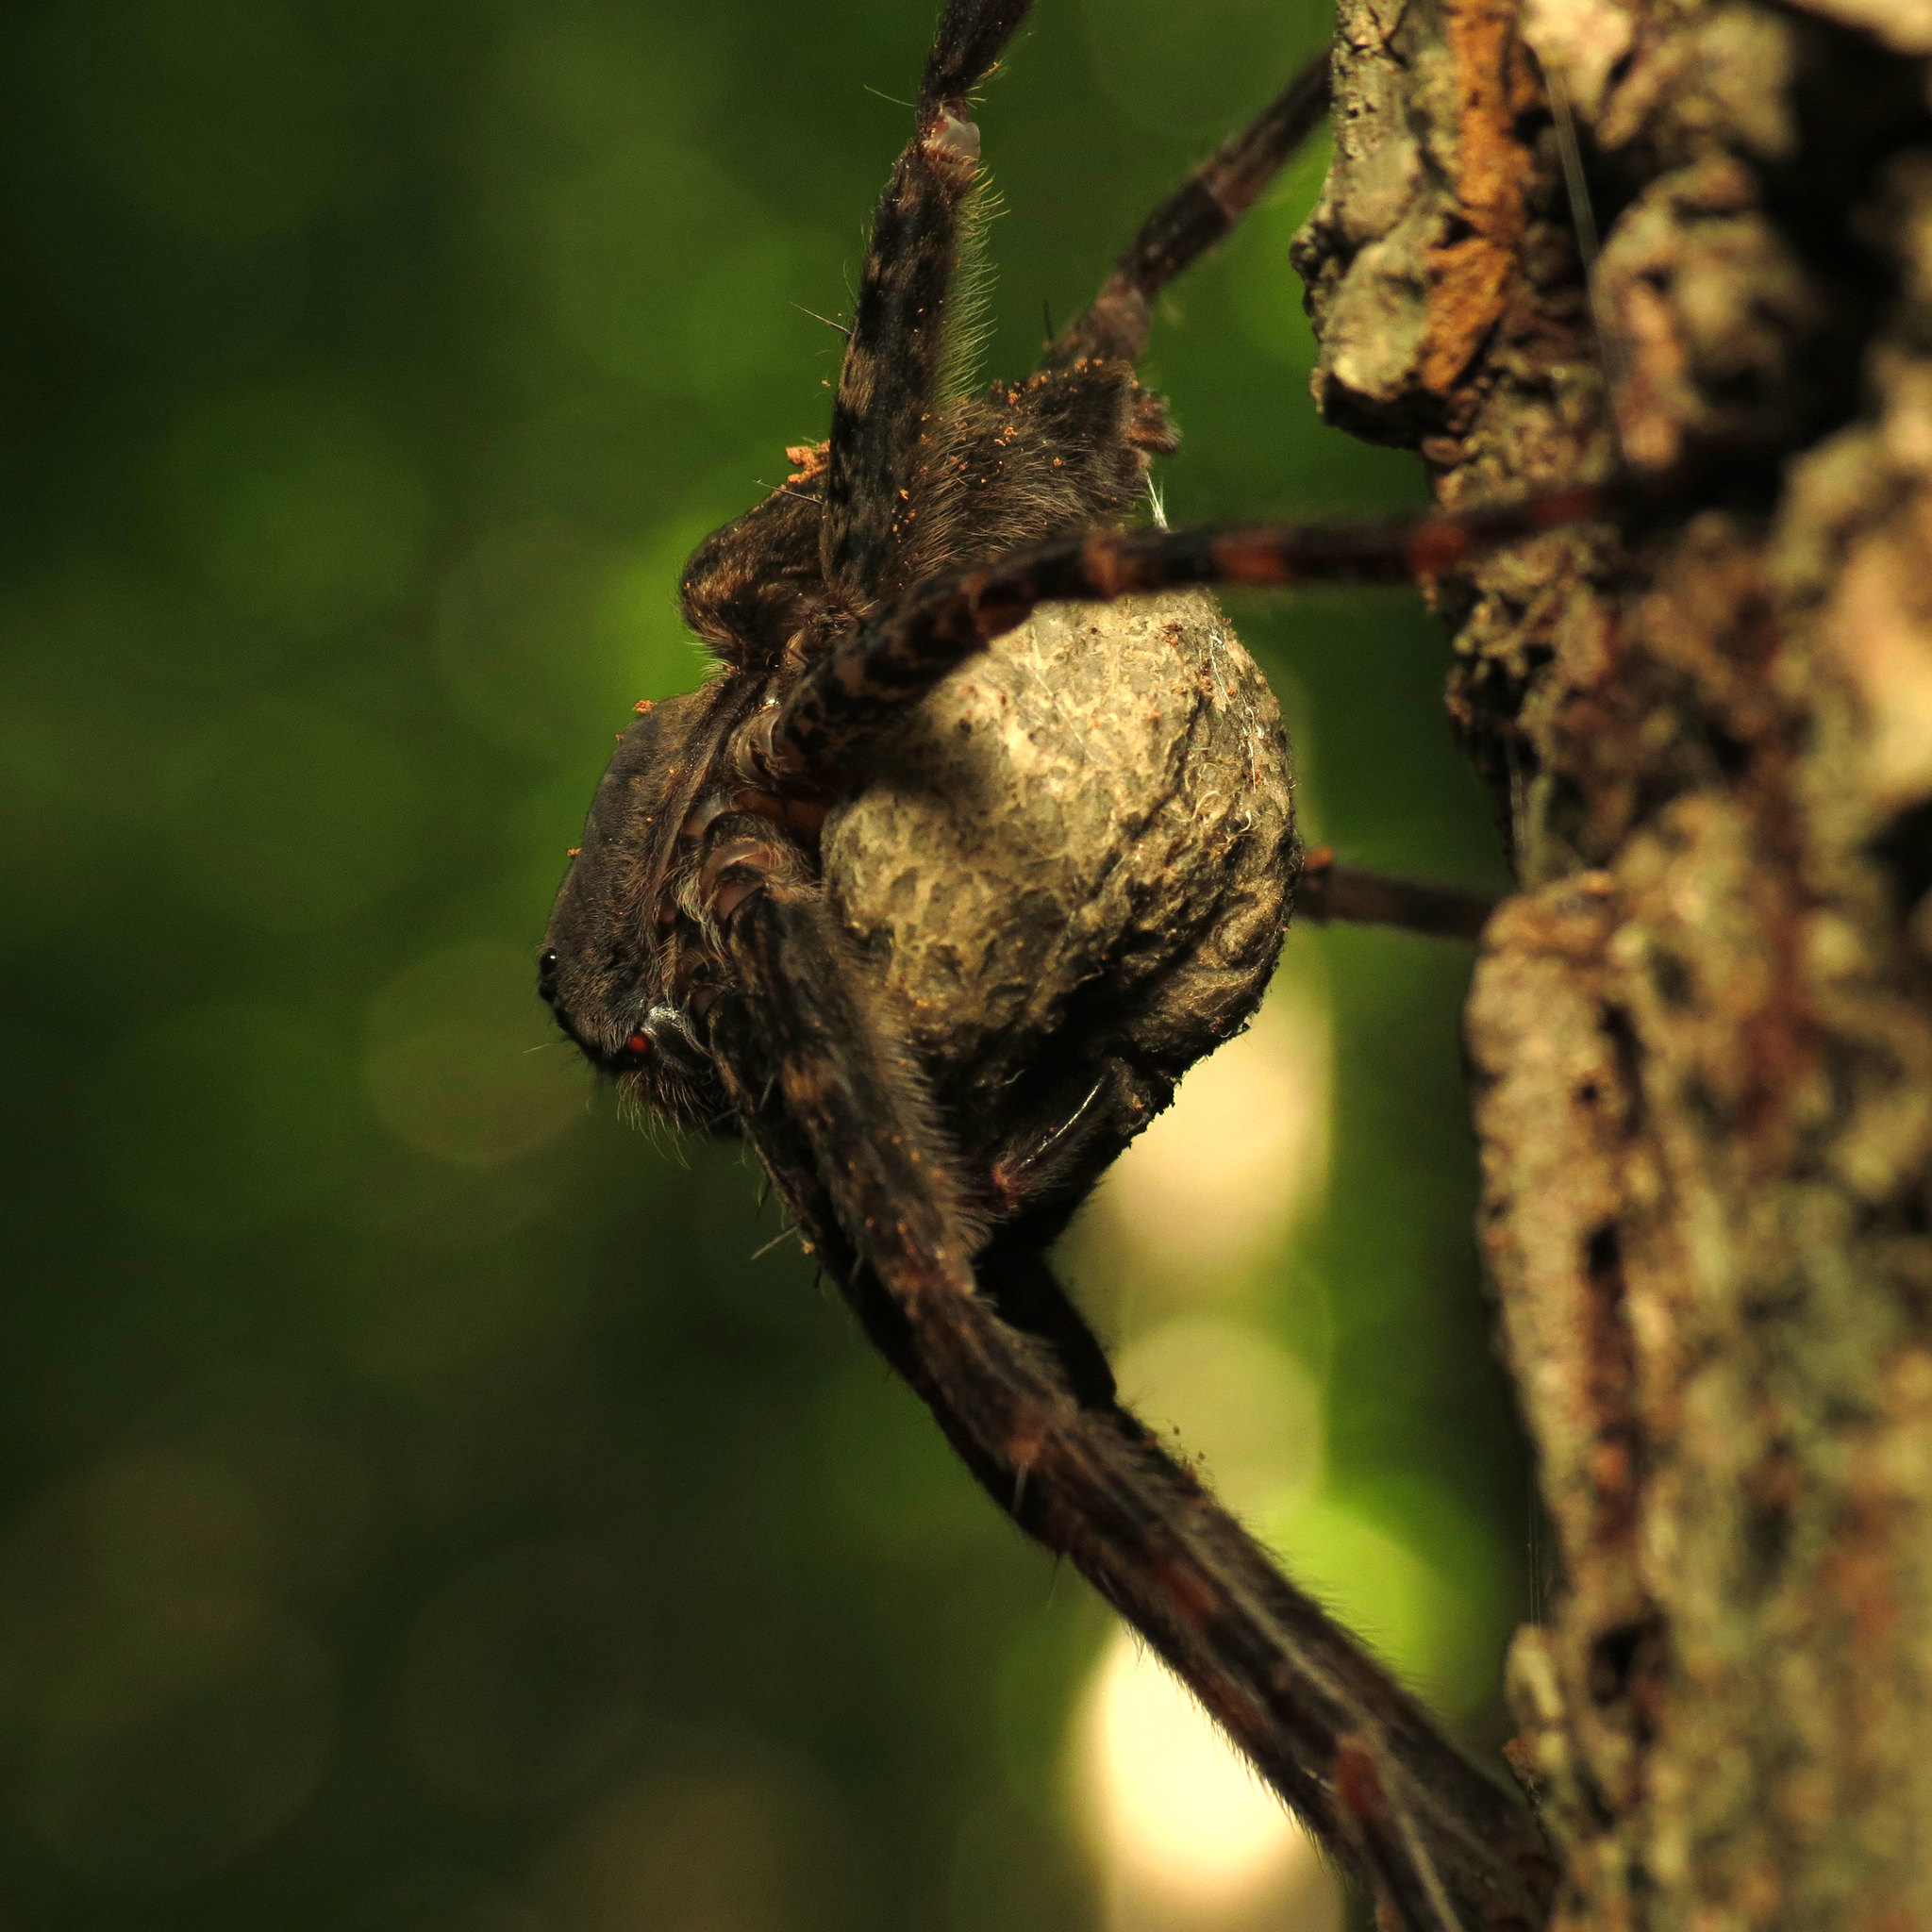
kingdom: Animalia
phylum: Arthropoda
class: Arachnida
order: Araneae
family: Pisauridae
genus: Dolomedes
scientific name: Dolomedes tenebrosus
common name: Dark fishing spider
